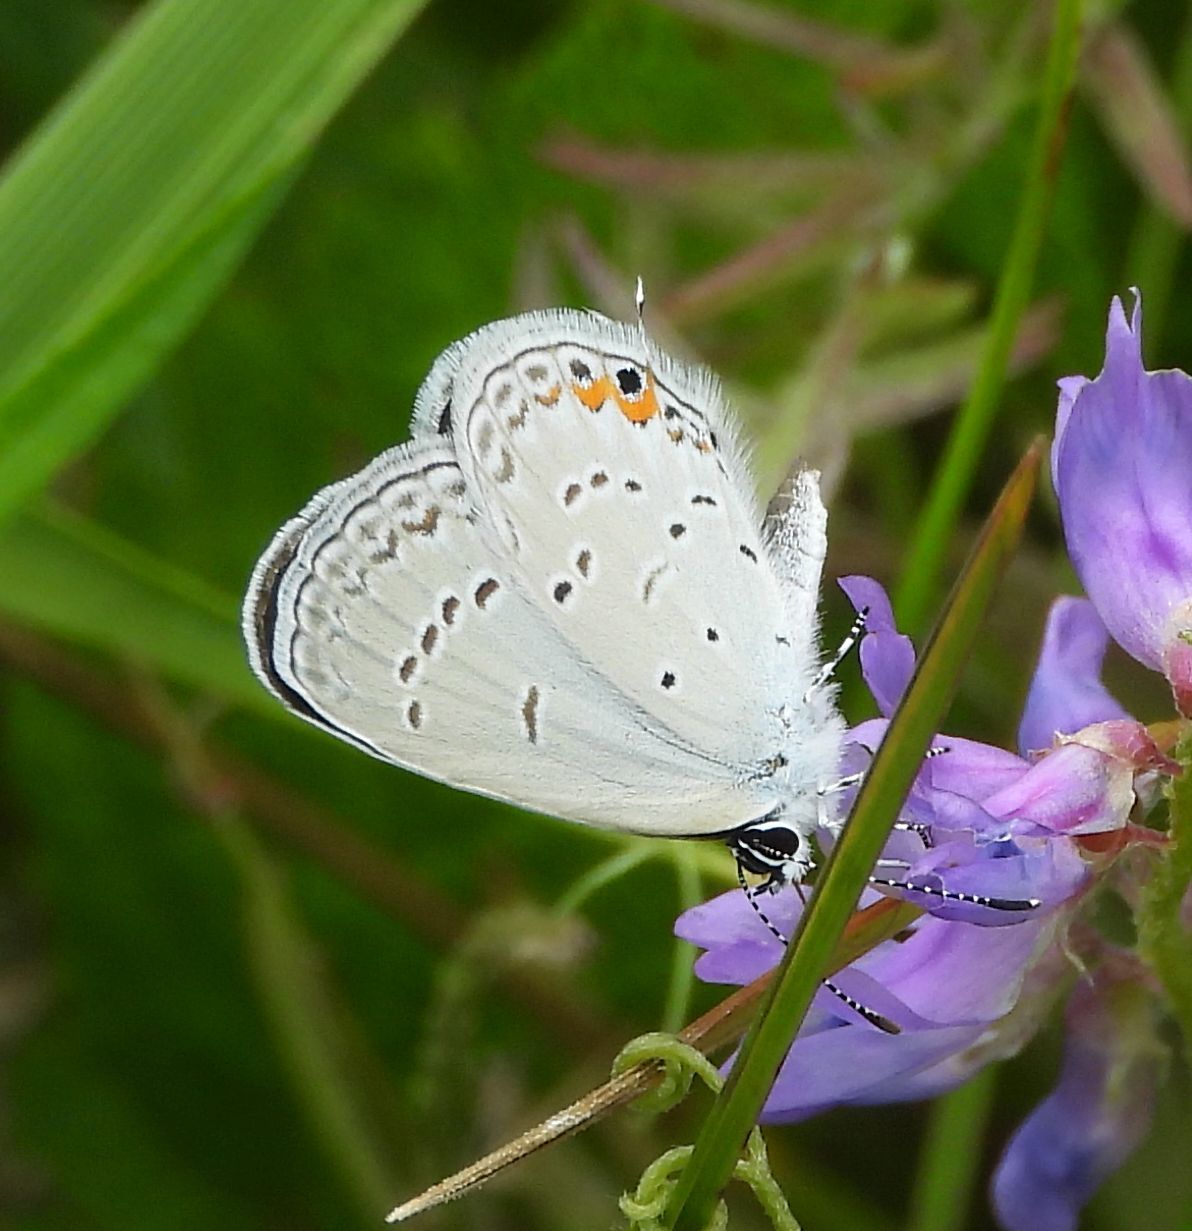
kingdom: Animalia
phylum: Arthropoda
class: Insecta
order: Lepidoptera
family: Lycaenidae
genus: Elkalyce
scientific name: Elkalyce comyntas
